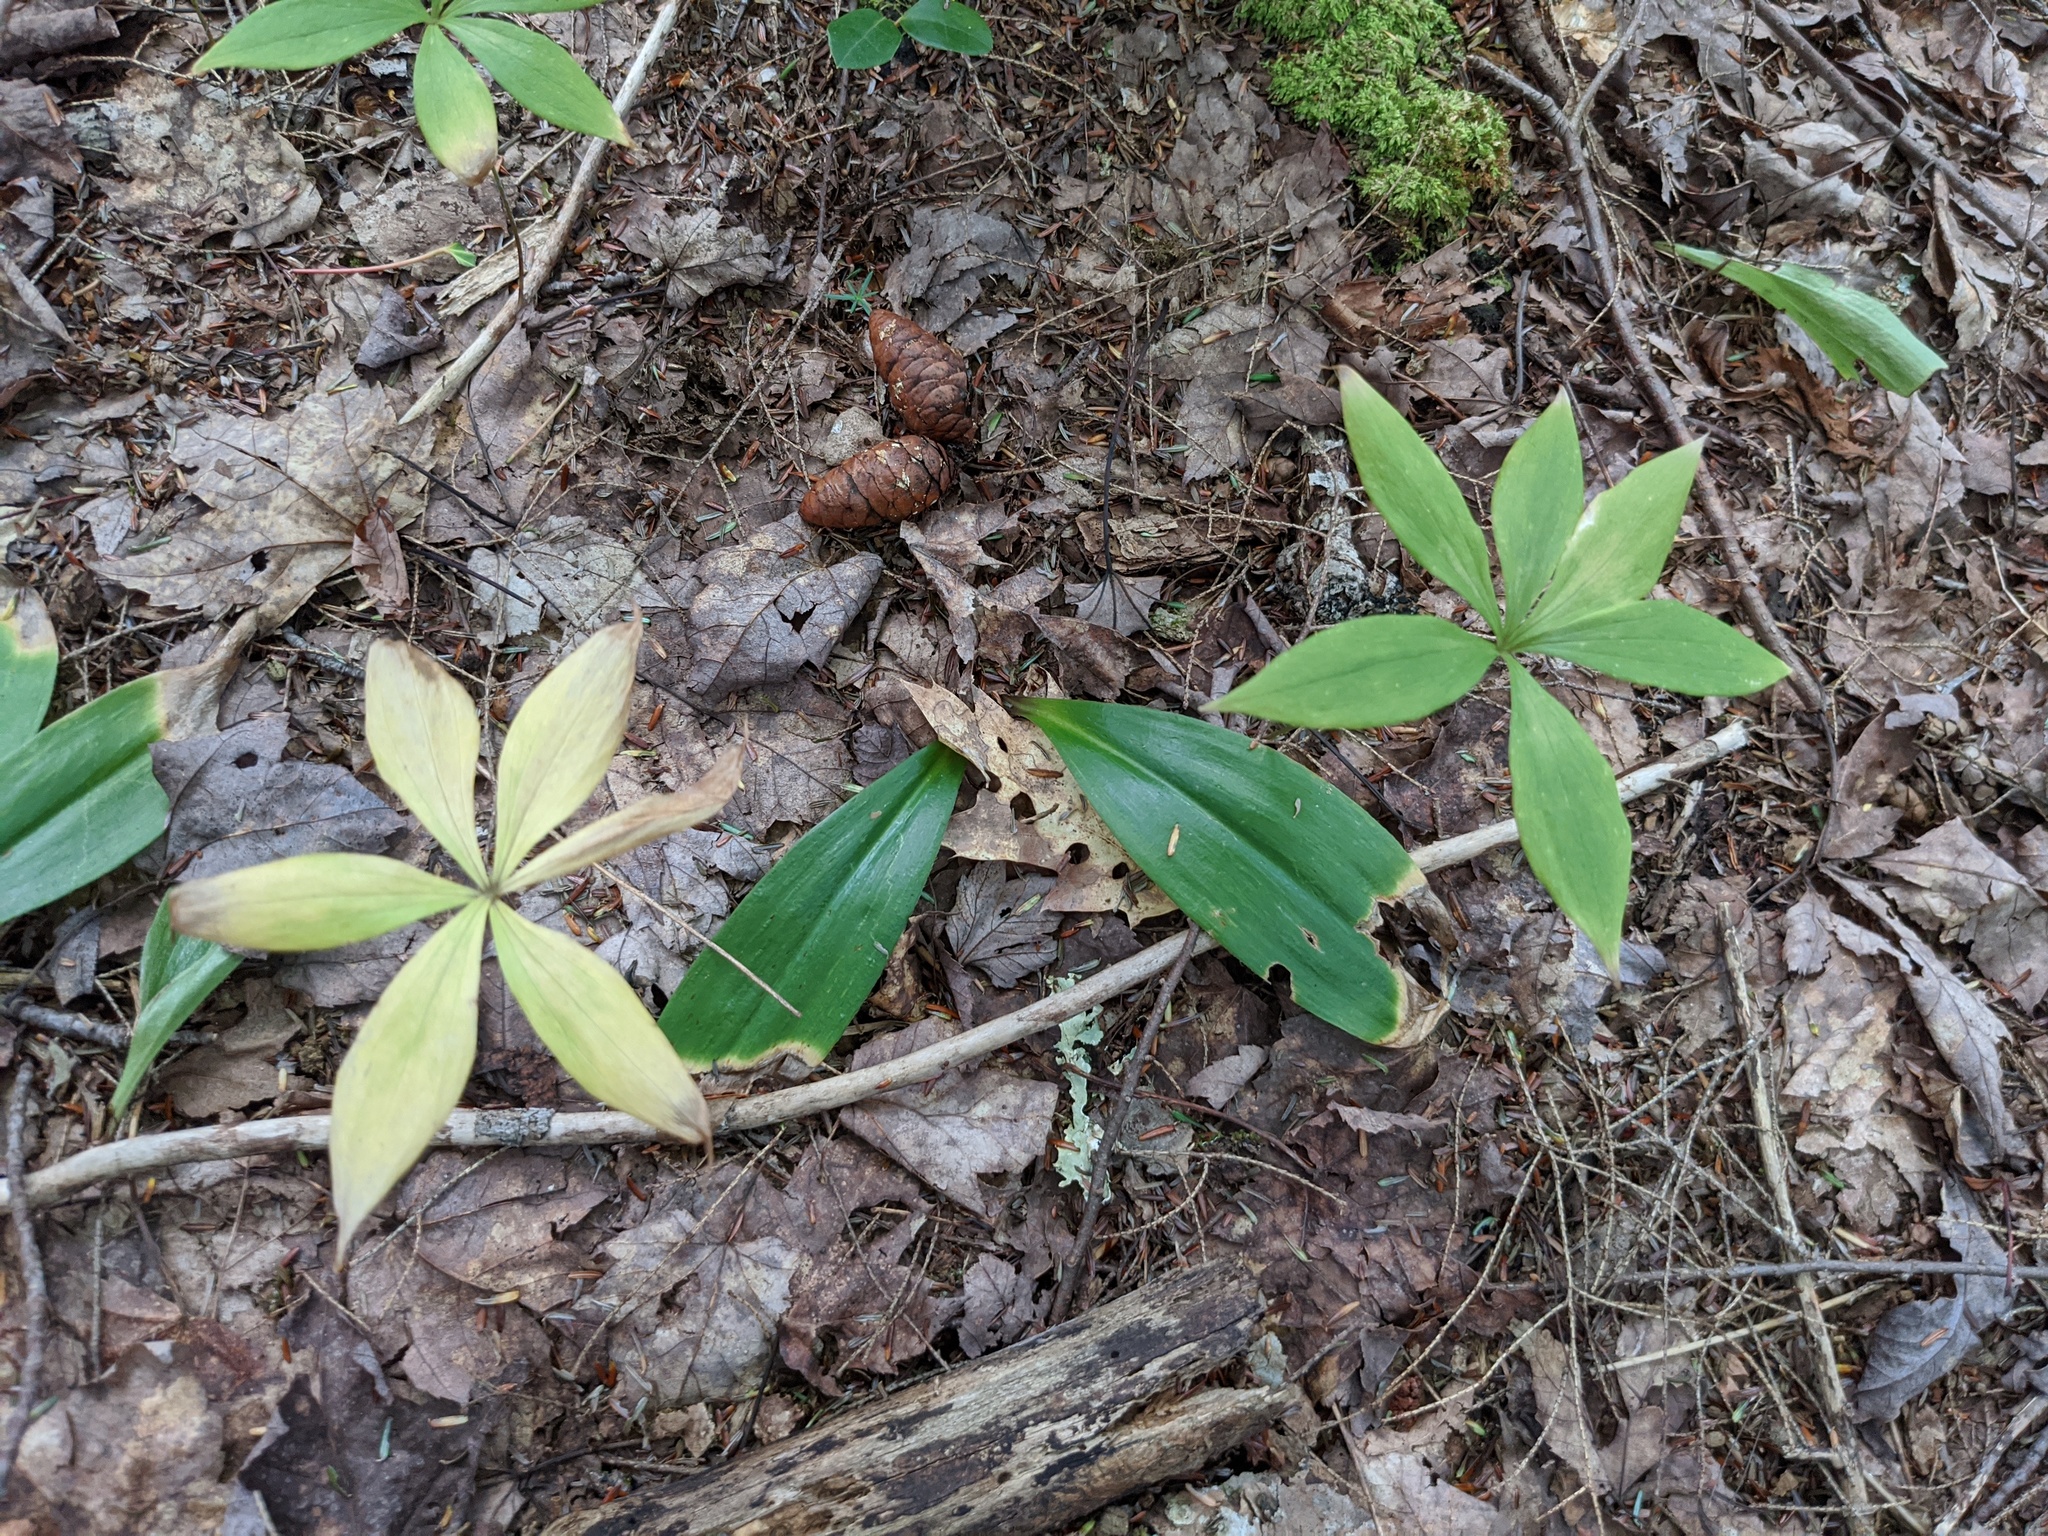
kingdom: Plantae
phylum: Tracheophyta
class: Liliopsida
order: Liliales
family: Liliaceae
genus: Medeola
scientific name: Medeola virginiana
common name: Indian cucumber-root
